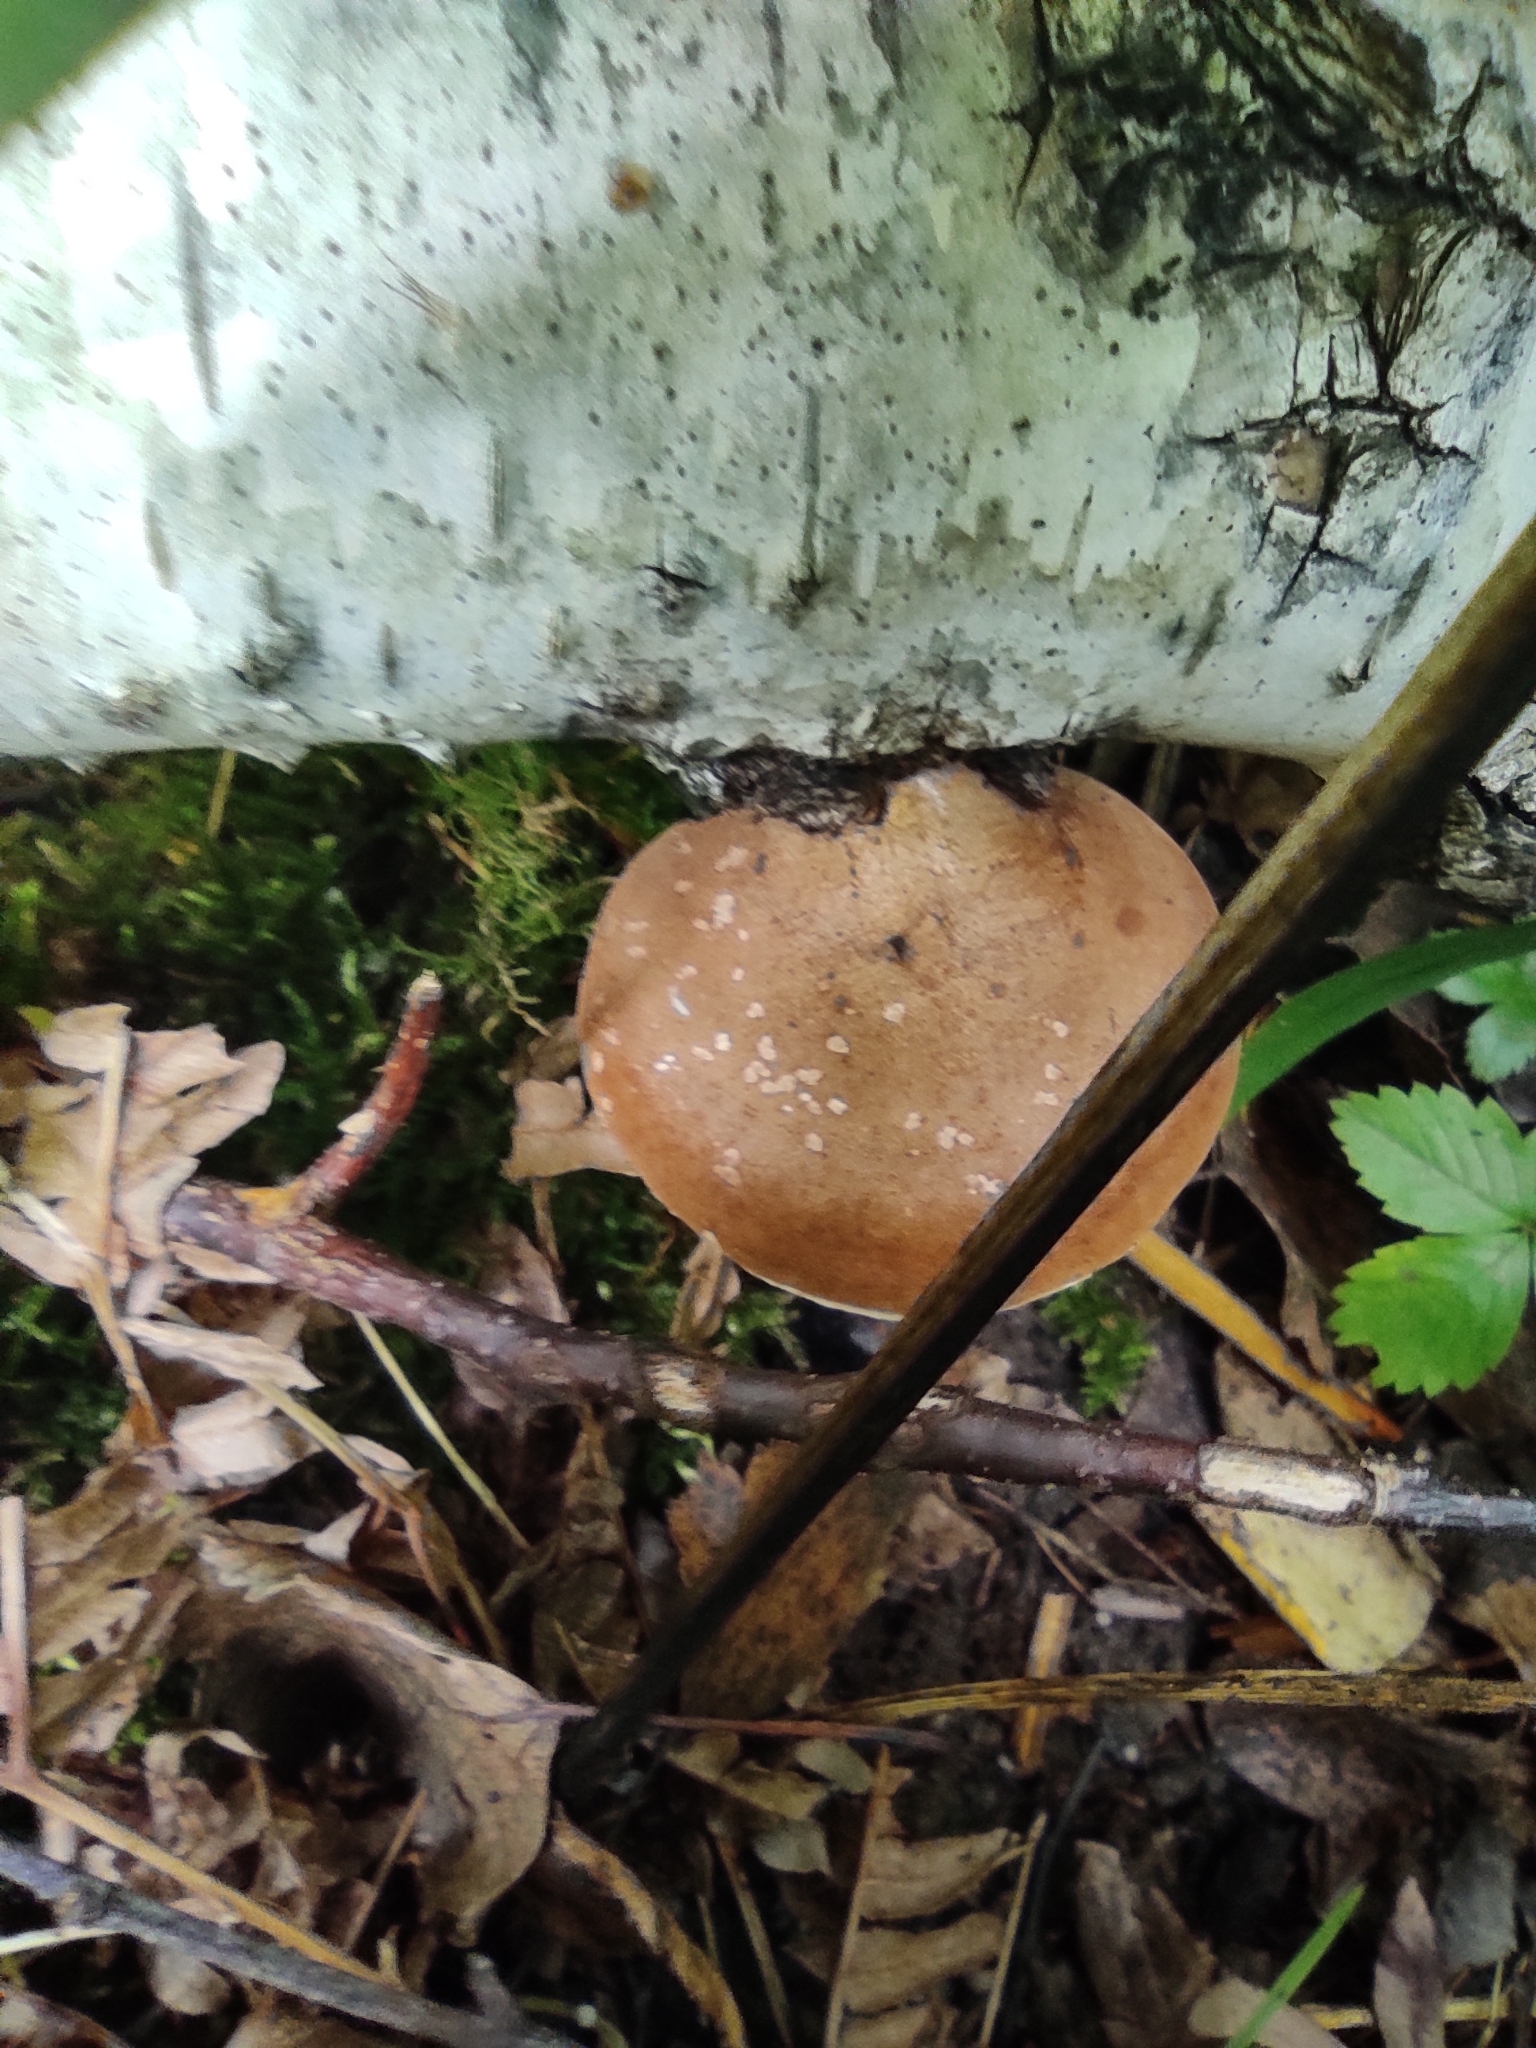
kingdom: Fungi
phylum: Basidiomycota
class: Agaricomycetes
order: Polyporales
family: Fomitopsidaceae
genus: Fomitopsis
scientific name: Fomitopsis betulina
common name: Birch polypore
